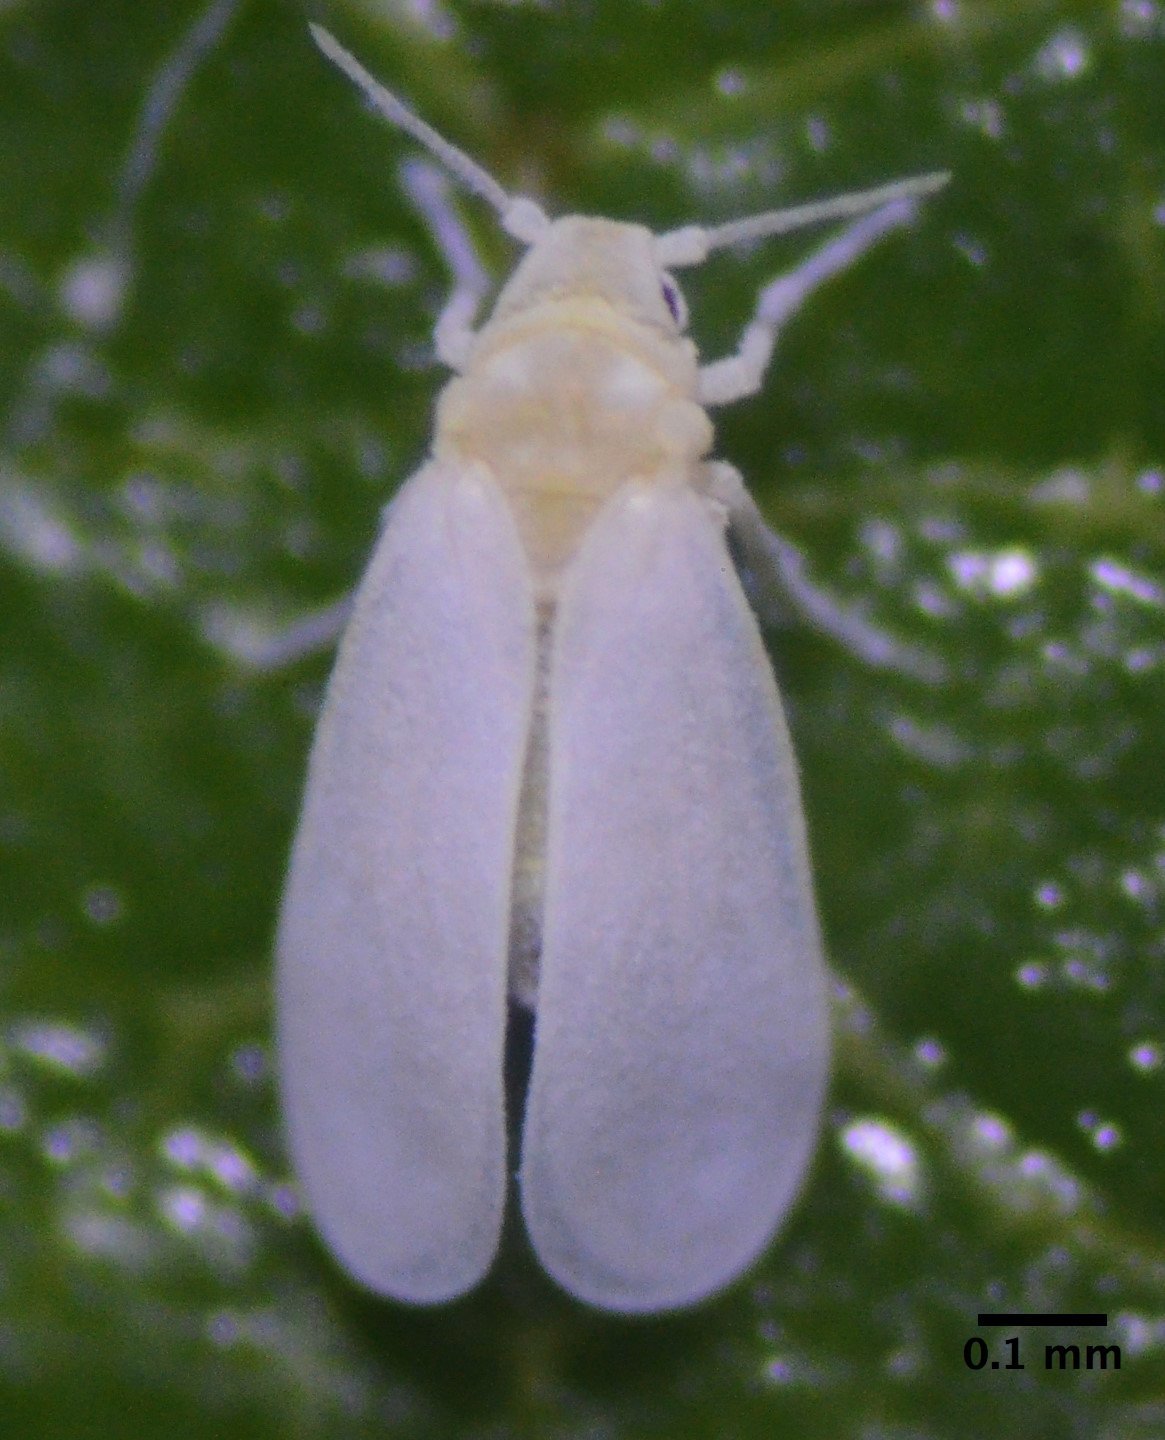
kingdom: Animalia
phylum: Arthropoda
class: Insecta
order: Hemiptera
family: Aleyrodidae
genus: Trialeurodes
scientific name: Trialeurodes vaporariorum
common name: Greenhouse white fly
